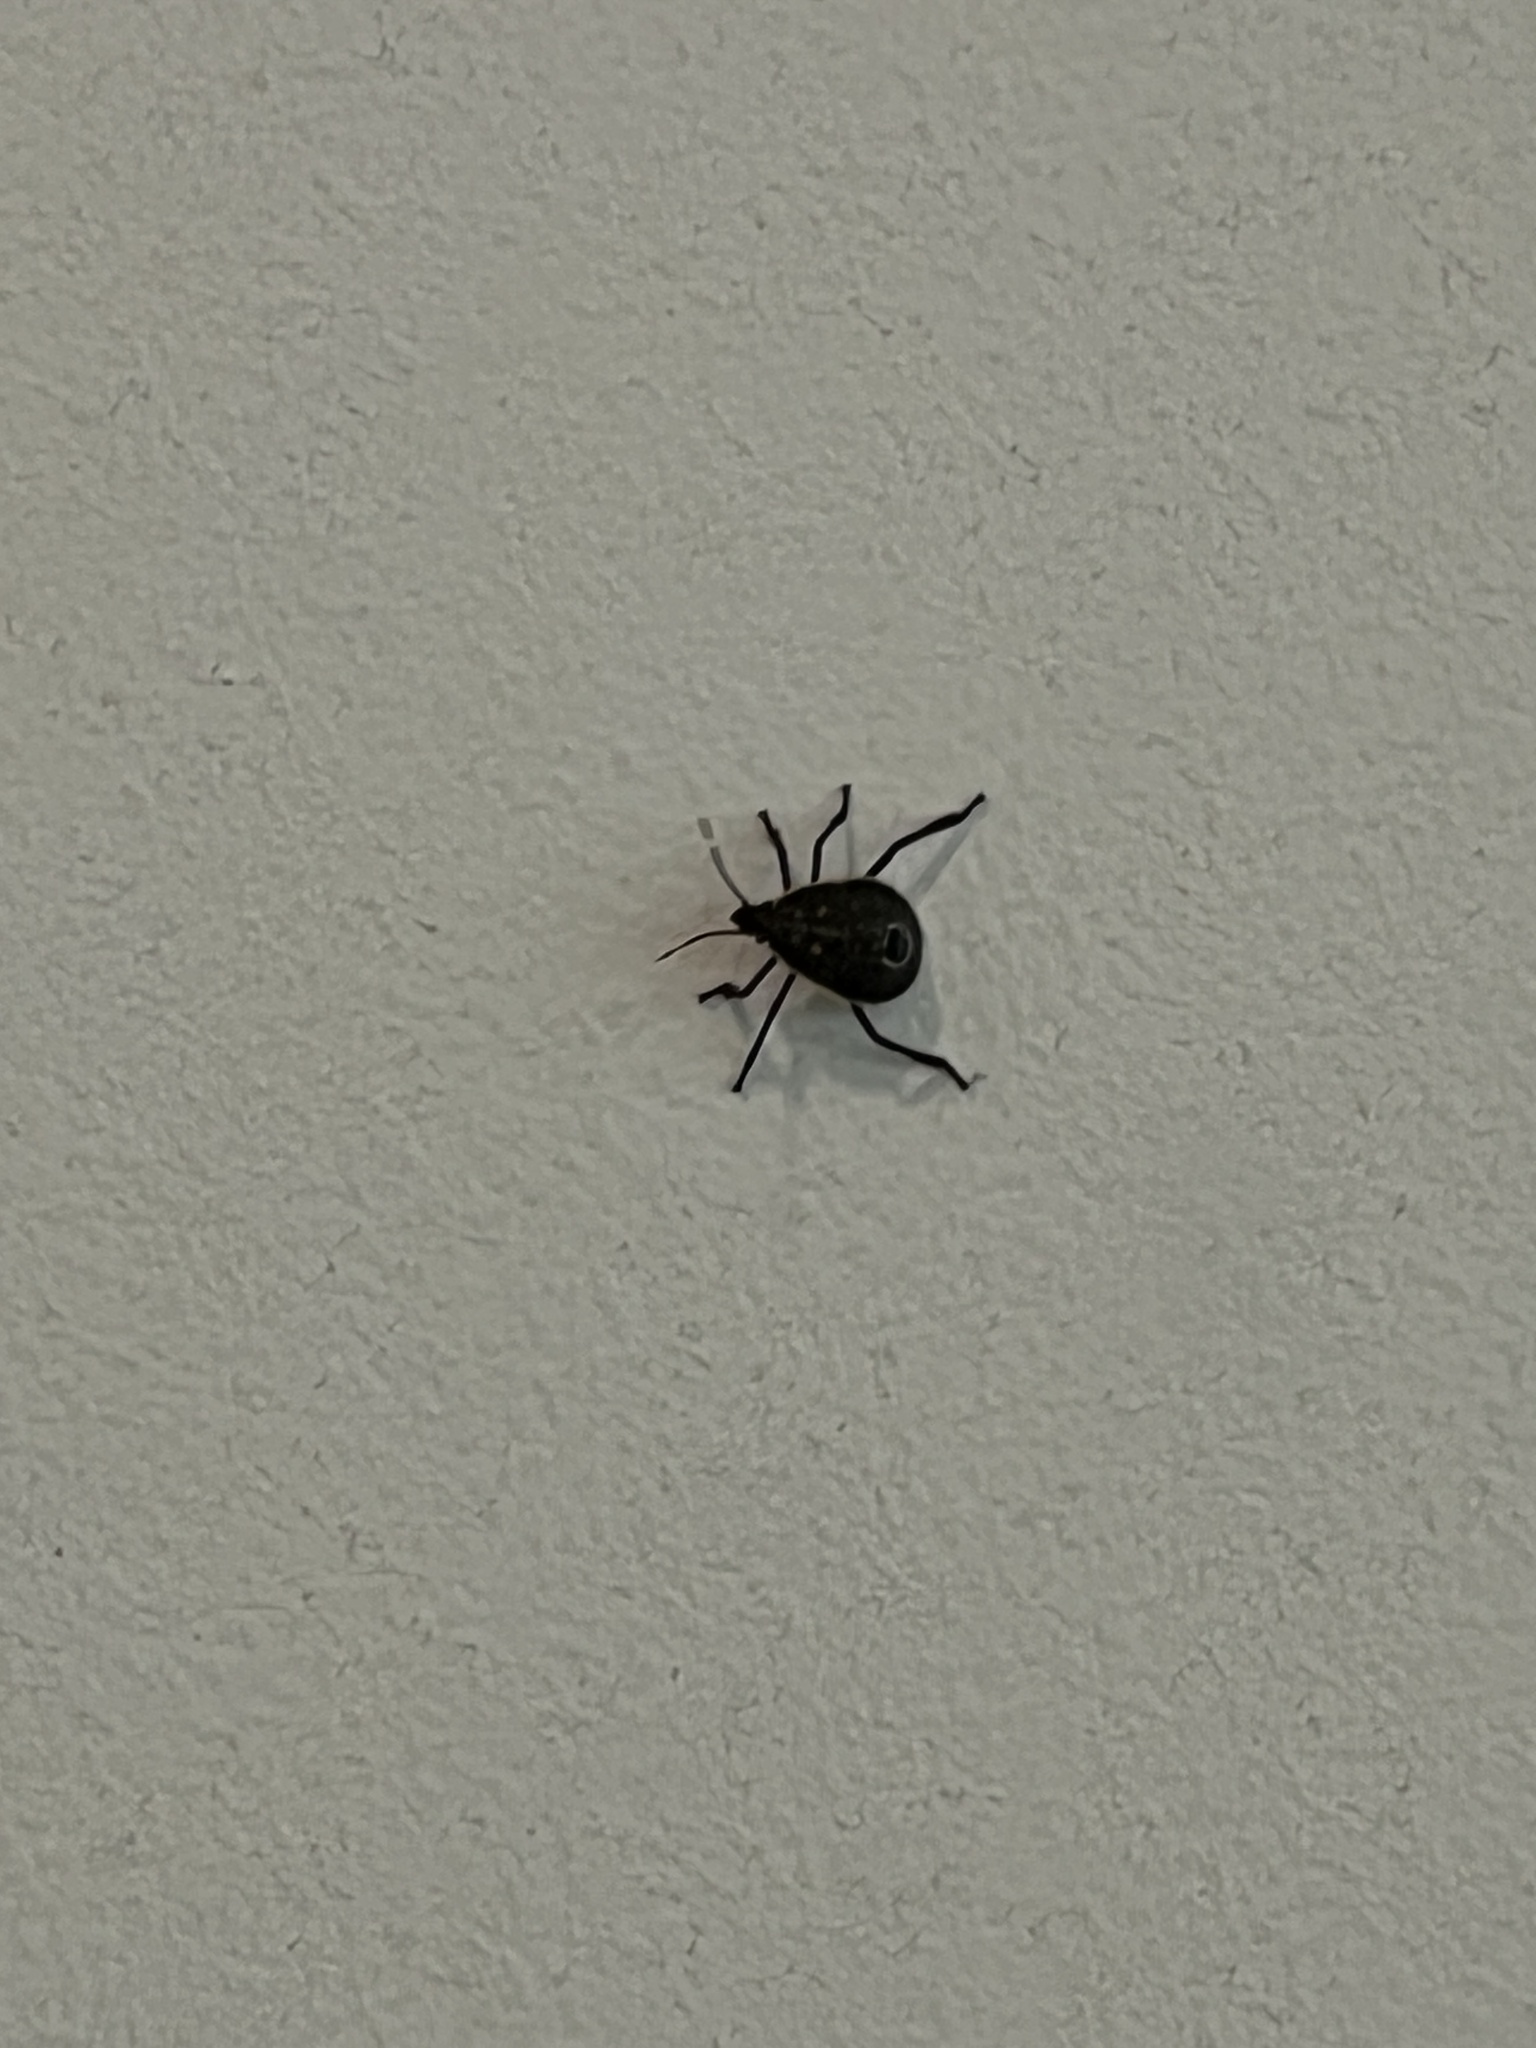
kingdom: Animalia
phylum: Arthropoda
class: Insecta
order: Hemiptera
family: Pentatomidae
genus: Erthesina
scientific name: Erthesina fullo
